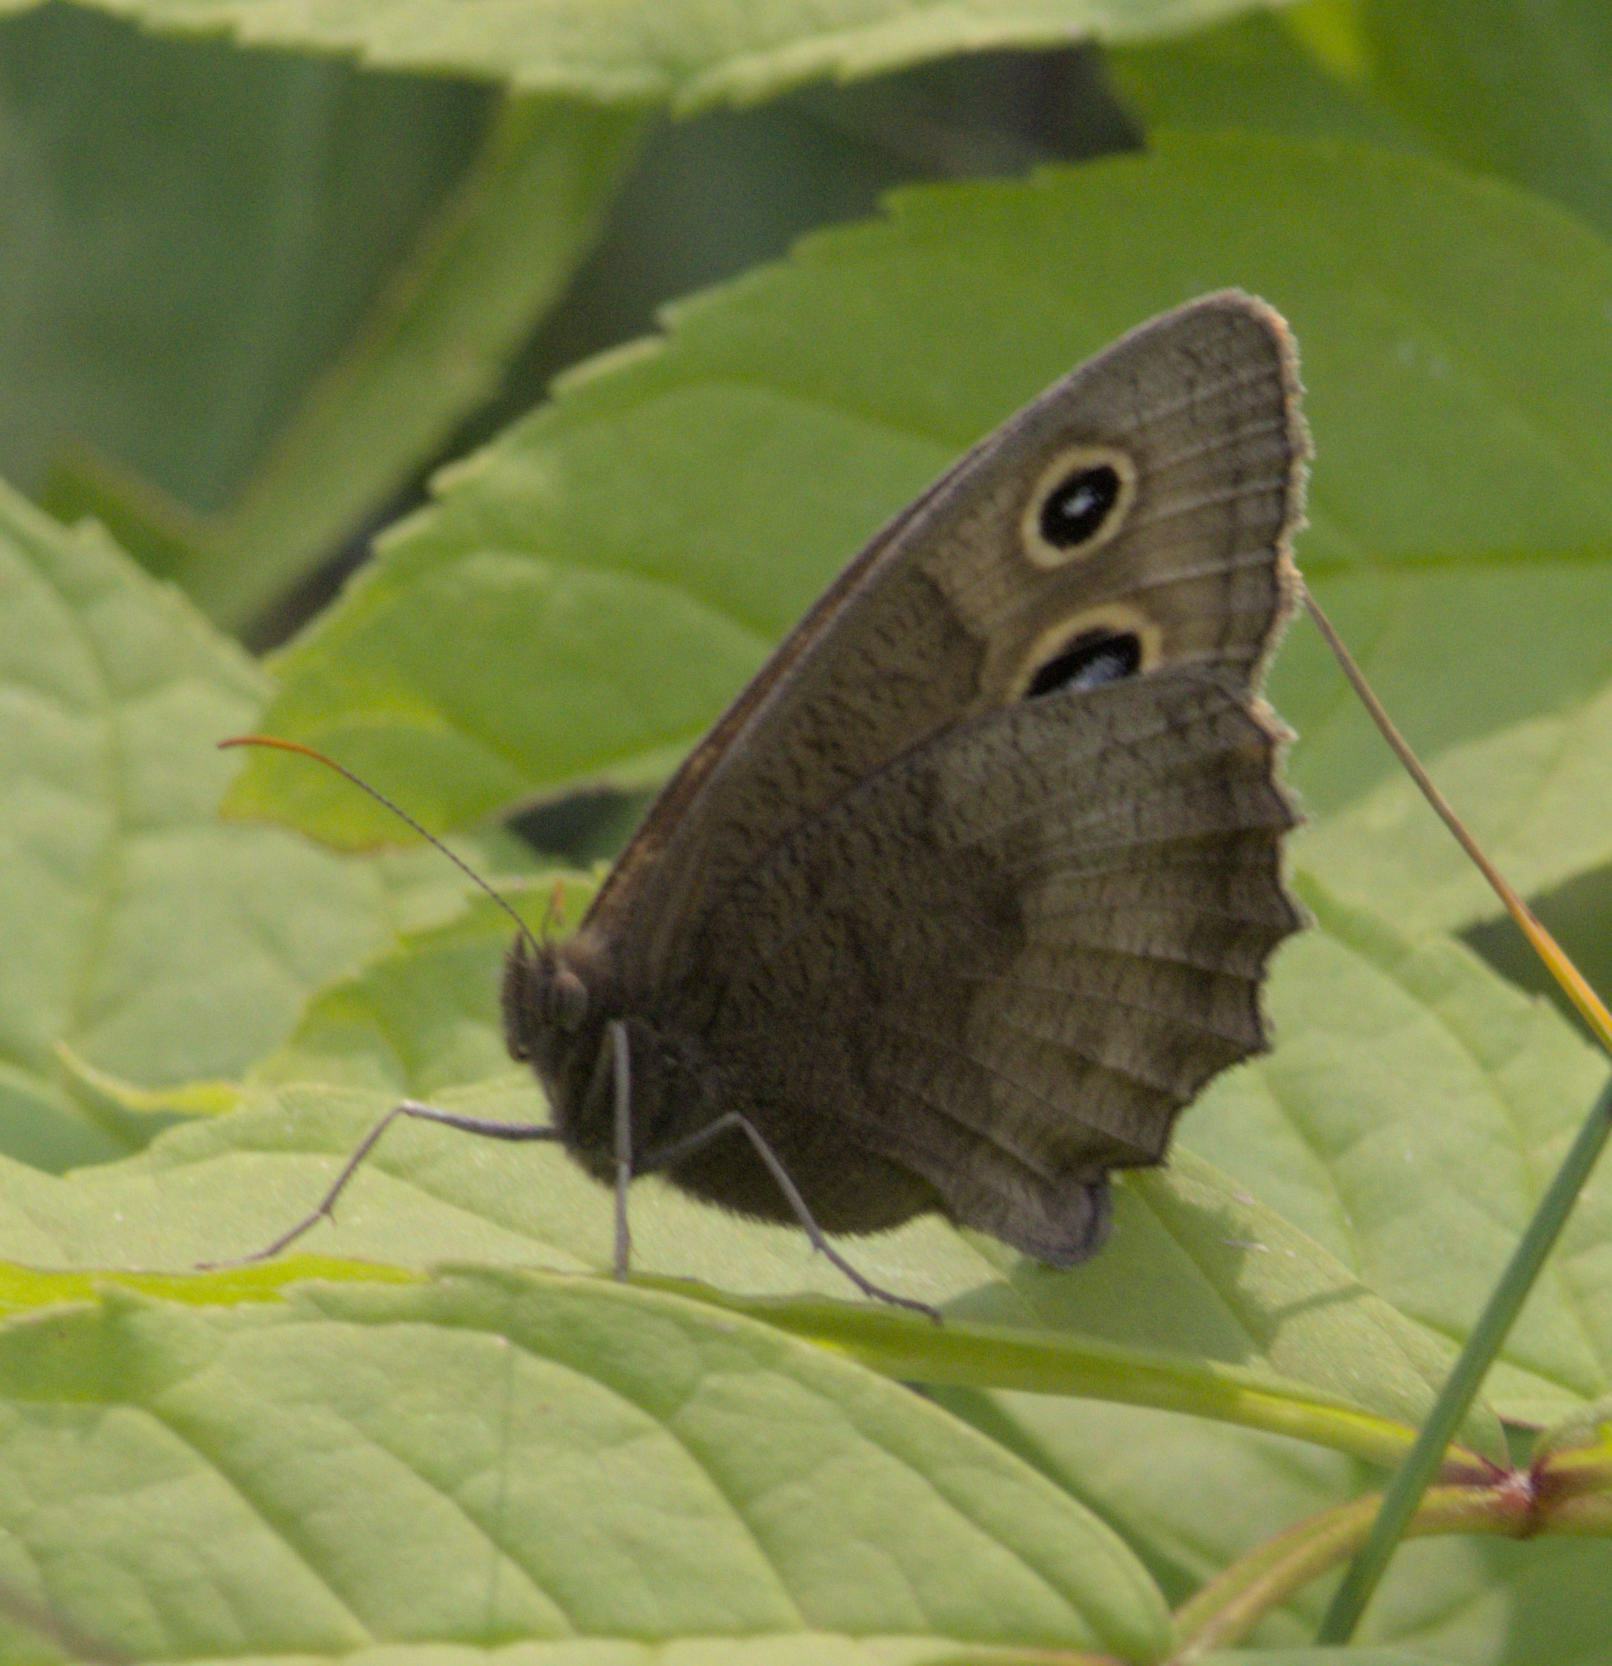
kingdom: Animalia
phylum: Arthropoda
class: Insecta
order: Lepidoptera
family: Nymphalidae
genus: Cercyonis
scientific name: Cercyonis pegala
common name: Common wood-nymph
